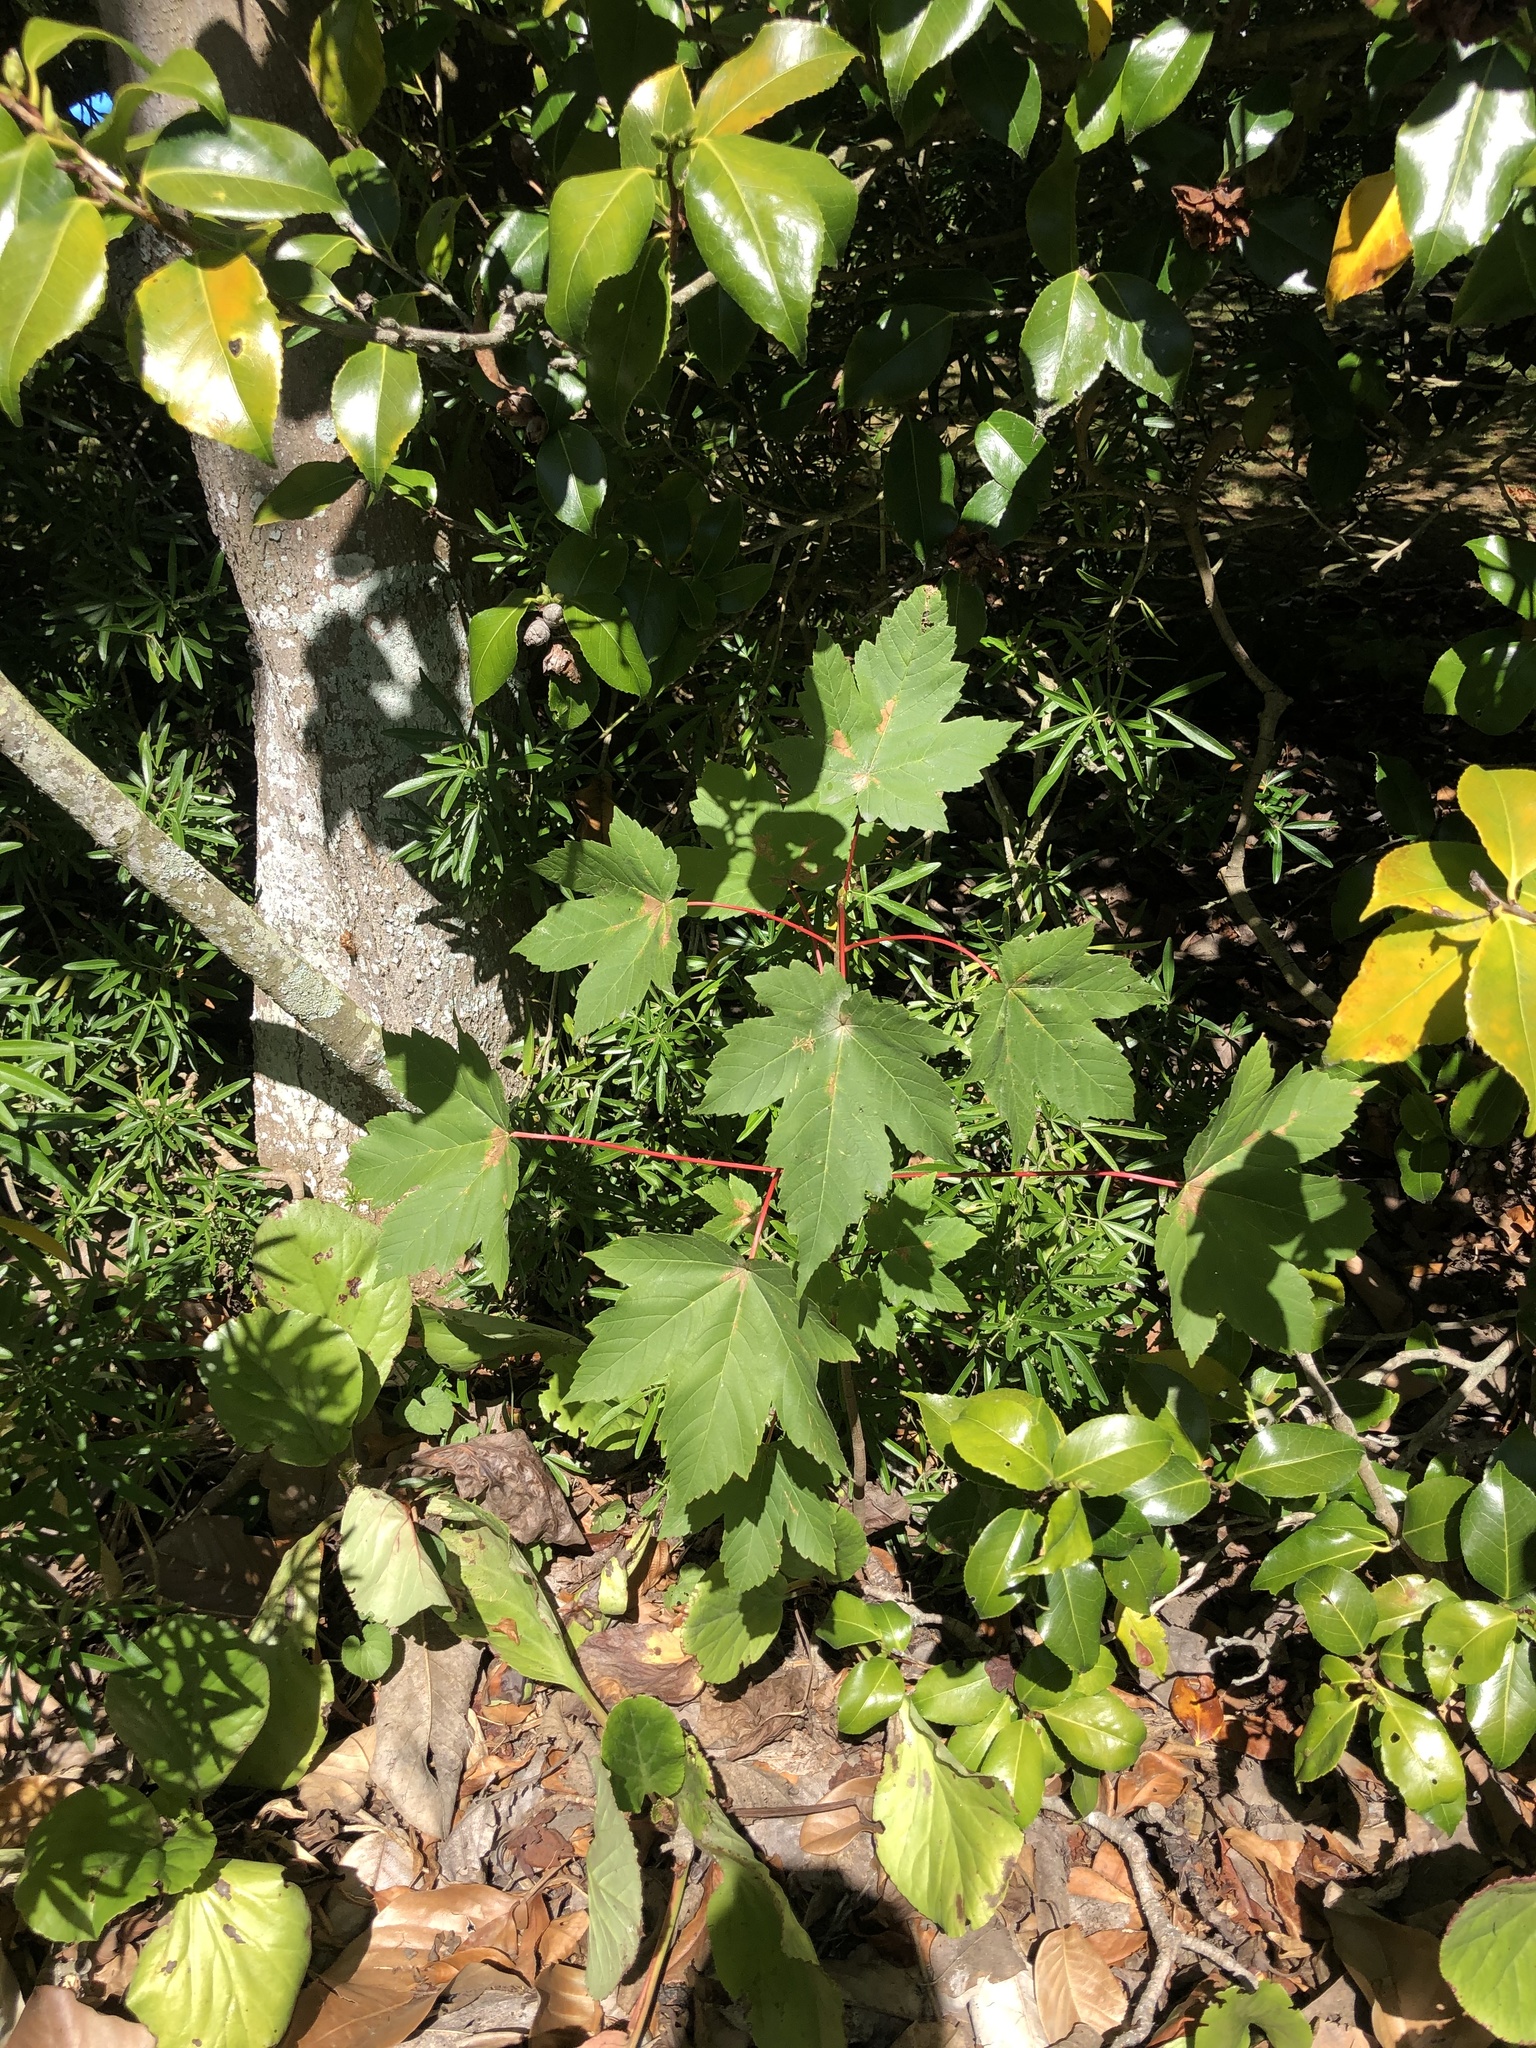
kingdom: Plantae
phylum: Tracheophyta
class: Magnoliopsida
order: Sapindales
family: Sapindaceae
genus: Acer
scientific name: Acer pseudoplatanus
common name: Sycamore
